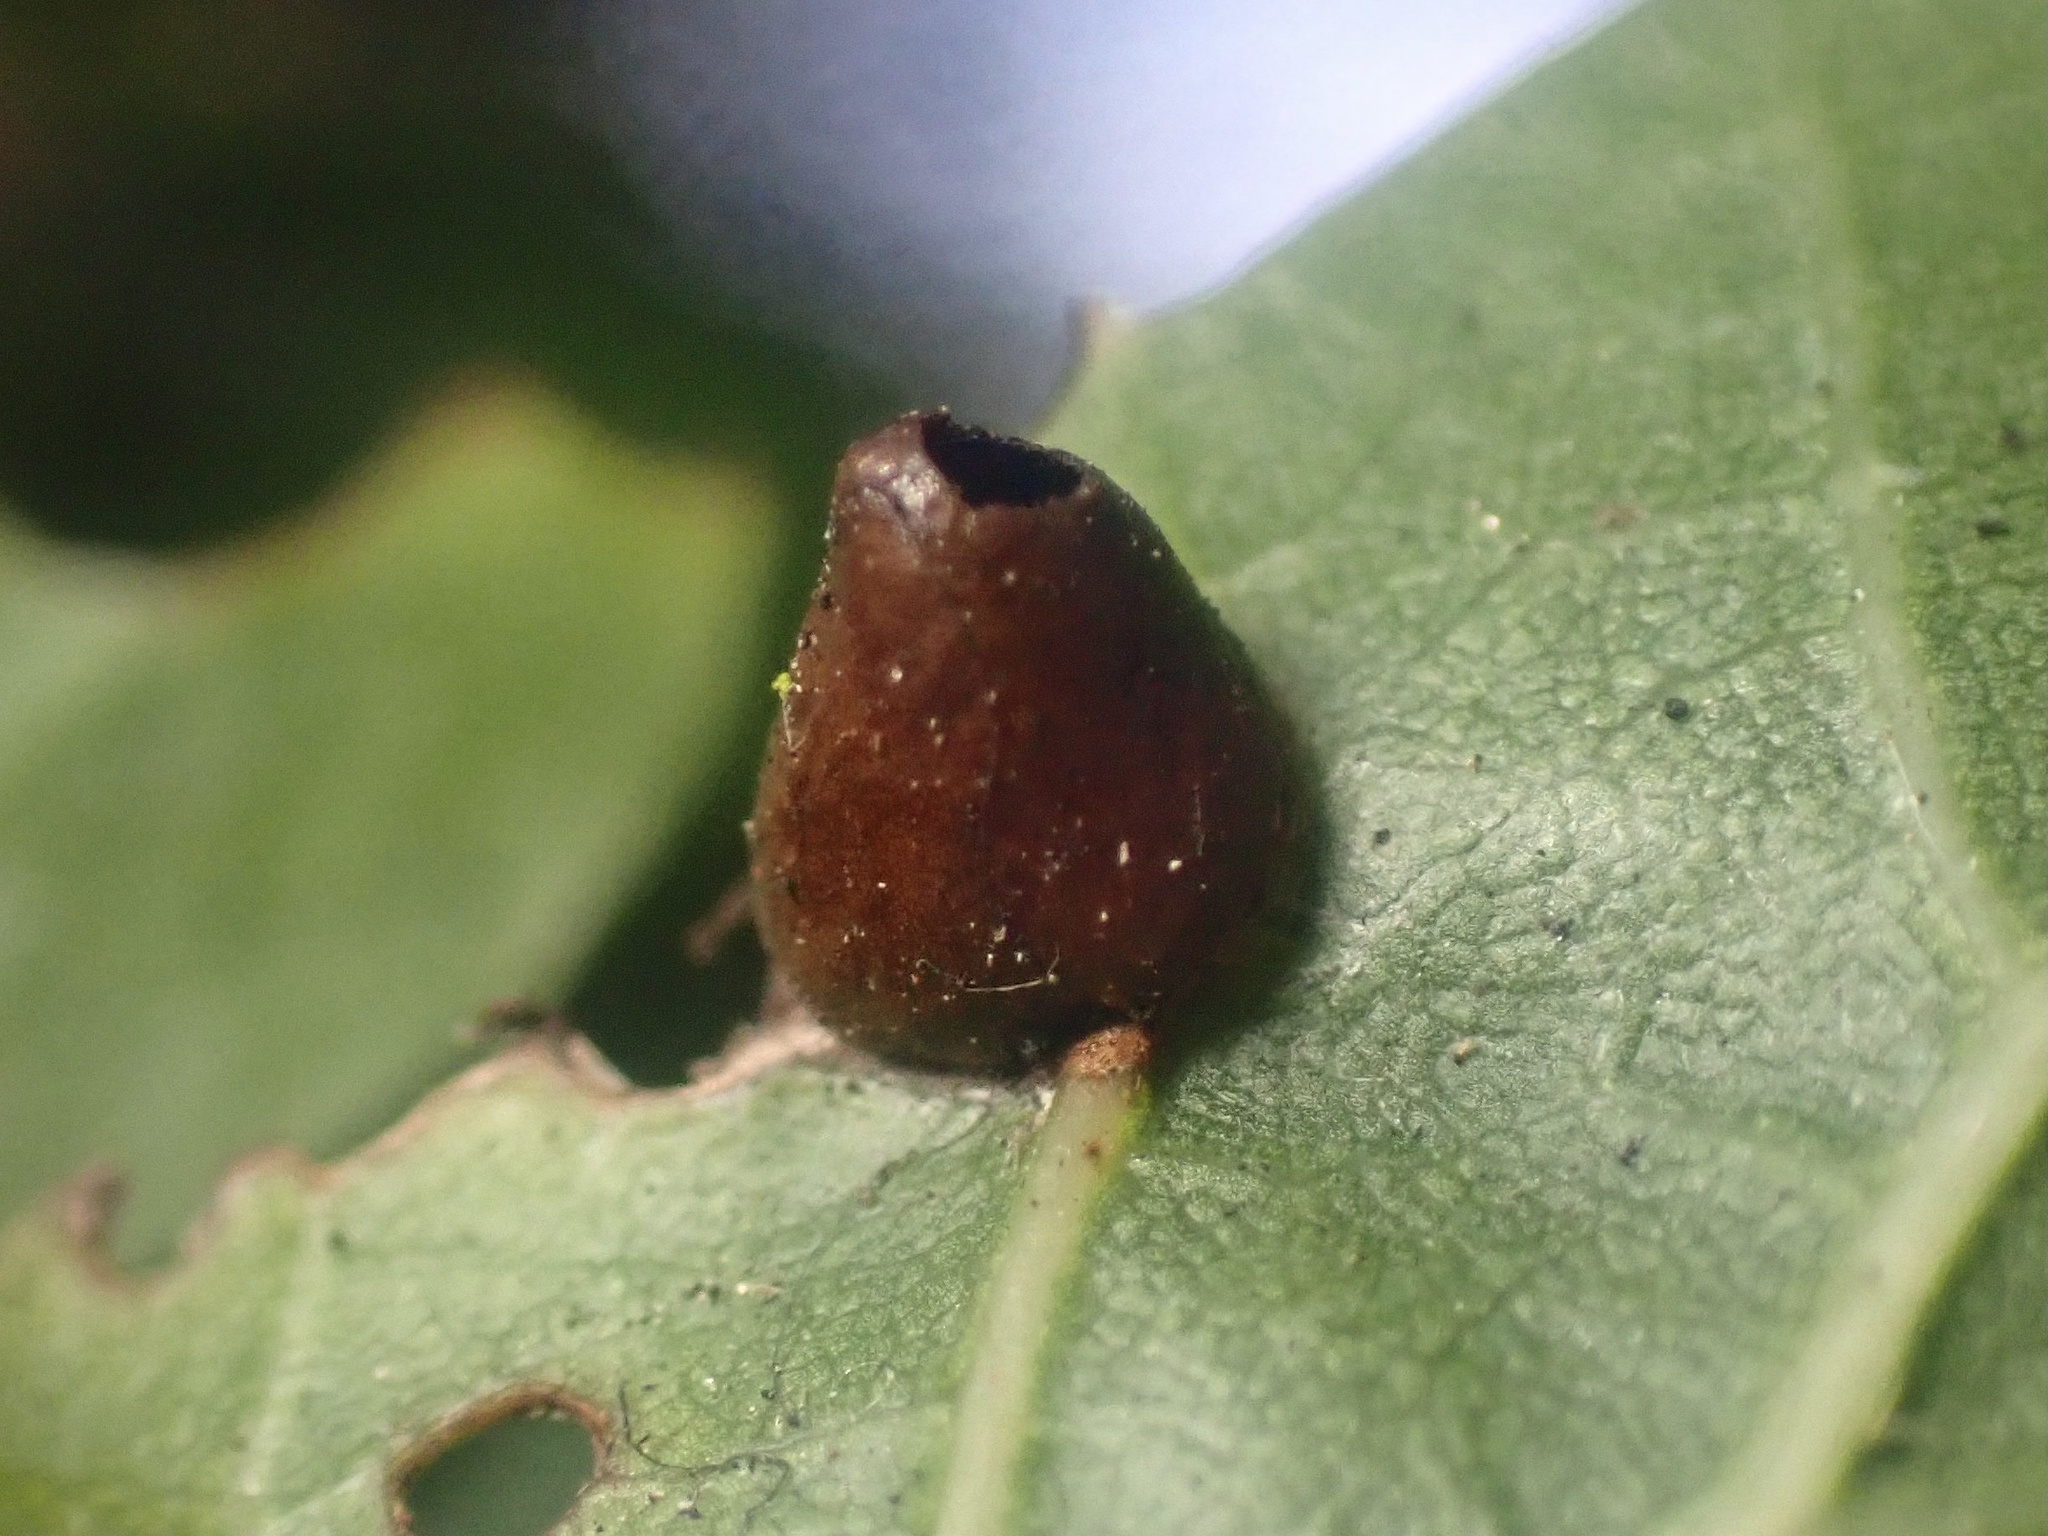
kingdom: Animalia
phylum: Arthropoda
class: Insecta
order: Hymenoptera
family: Cynipidae
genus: Dryocosmus
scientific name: Dryocosmus
